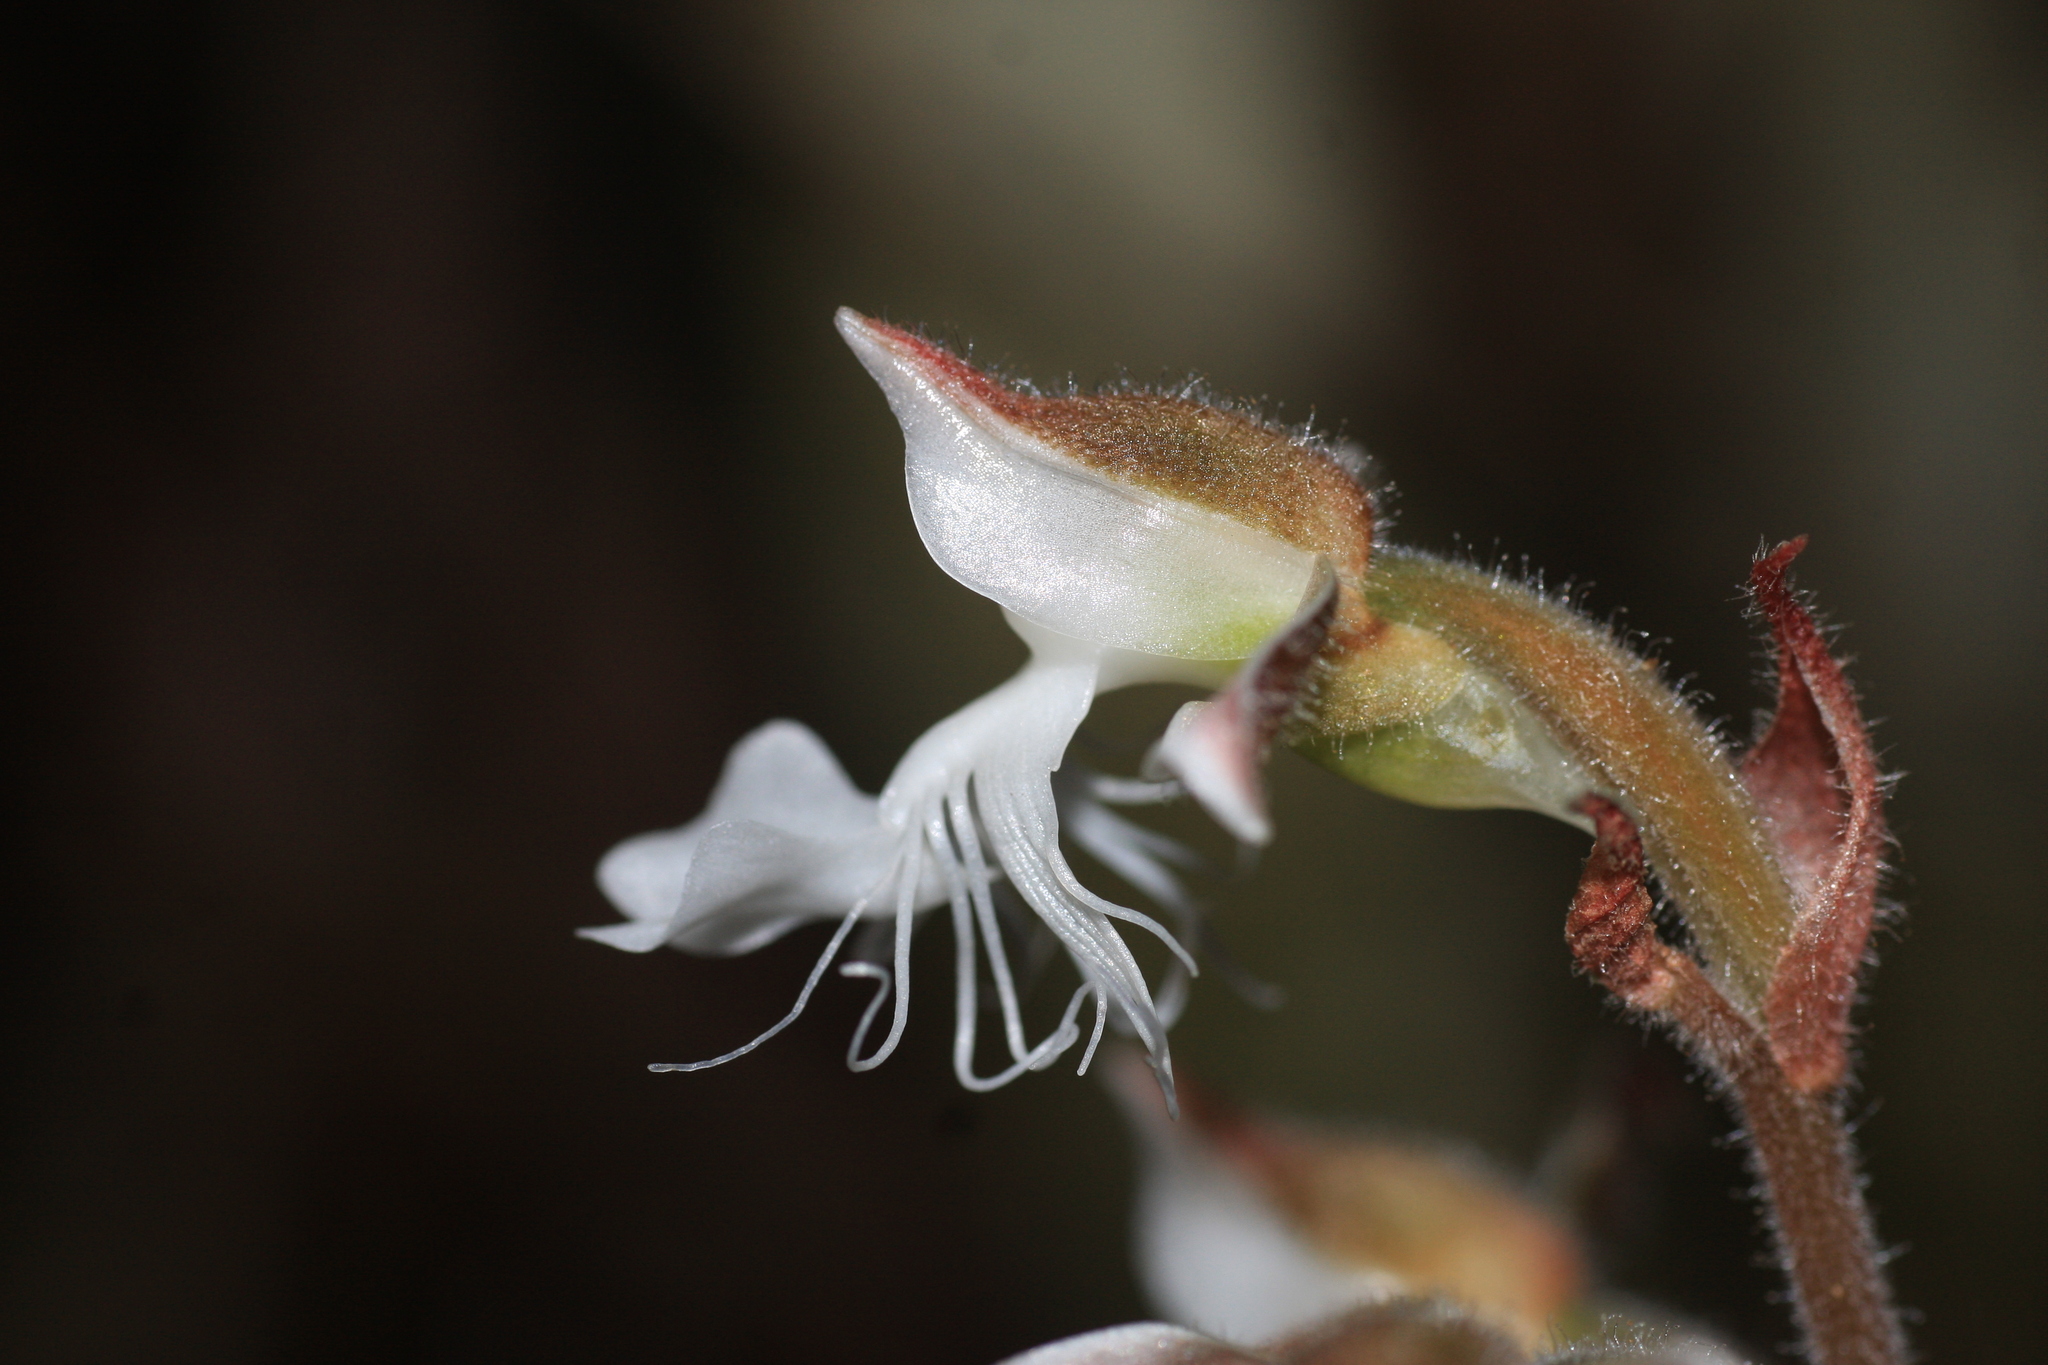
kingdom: Plantae
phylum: Tracheophyta
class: Liliopsida
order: Asparagales
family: Orchidaceae
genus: Anoectochilus
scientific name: Anoectochilus elatus
